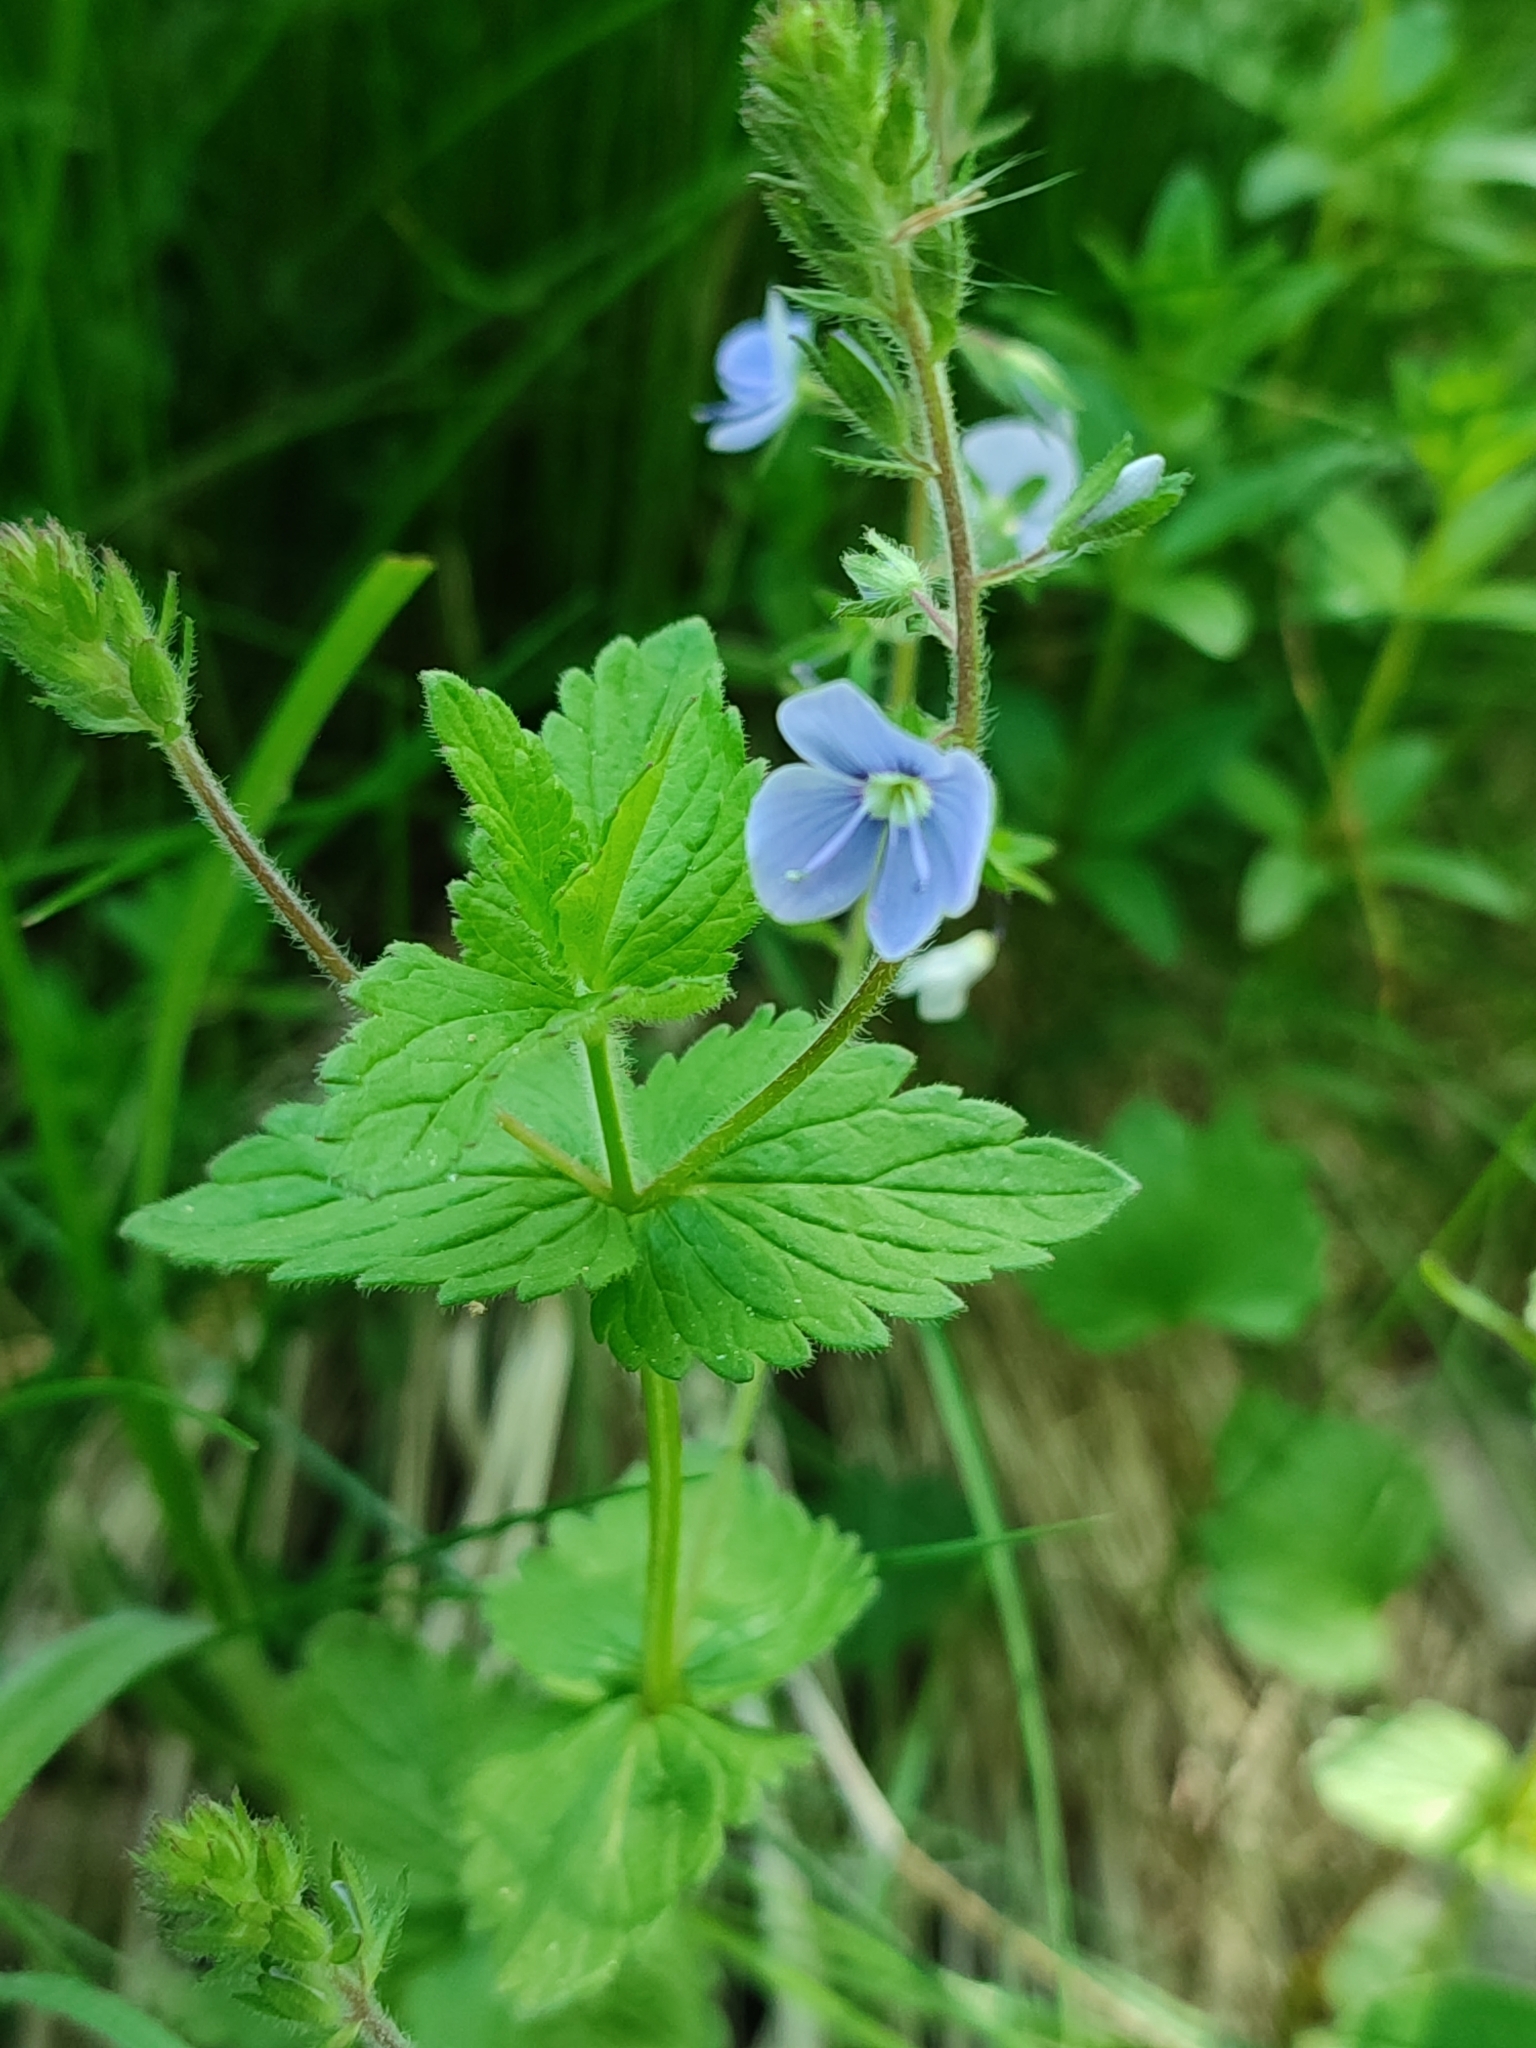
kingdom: Plantae
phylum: Tracheophyta
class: Magnoliopsida
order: Lamiales
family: Plantaginaceae
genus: Veronica
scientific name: Veronica chamaedrys
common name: Germander speedwell
